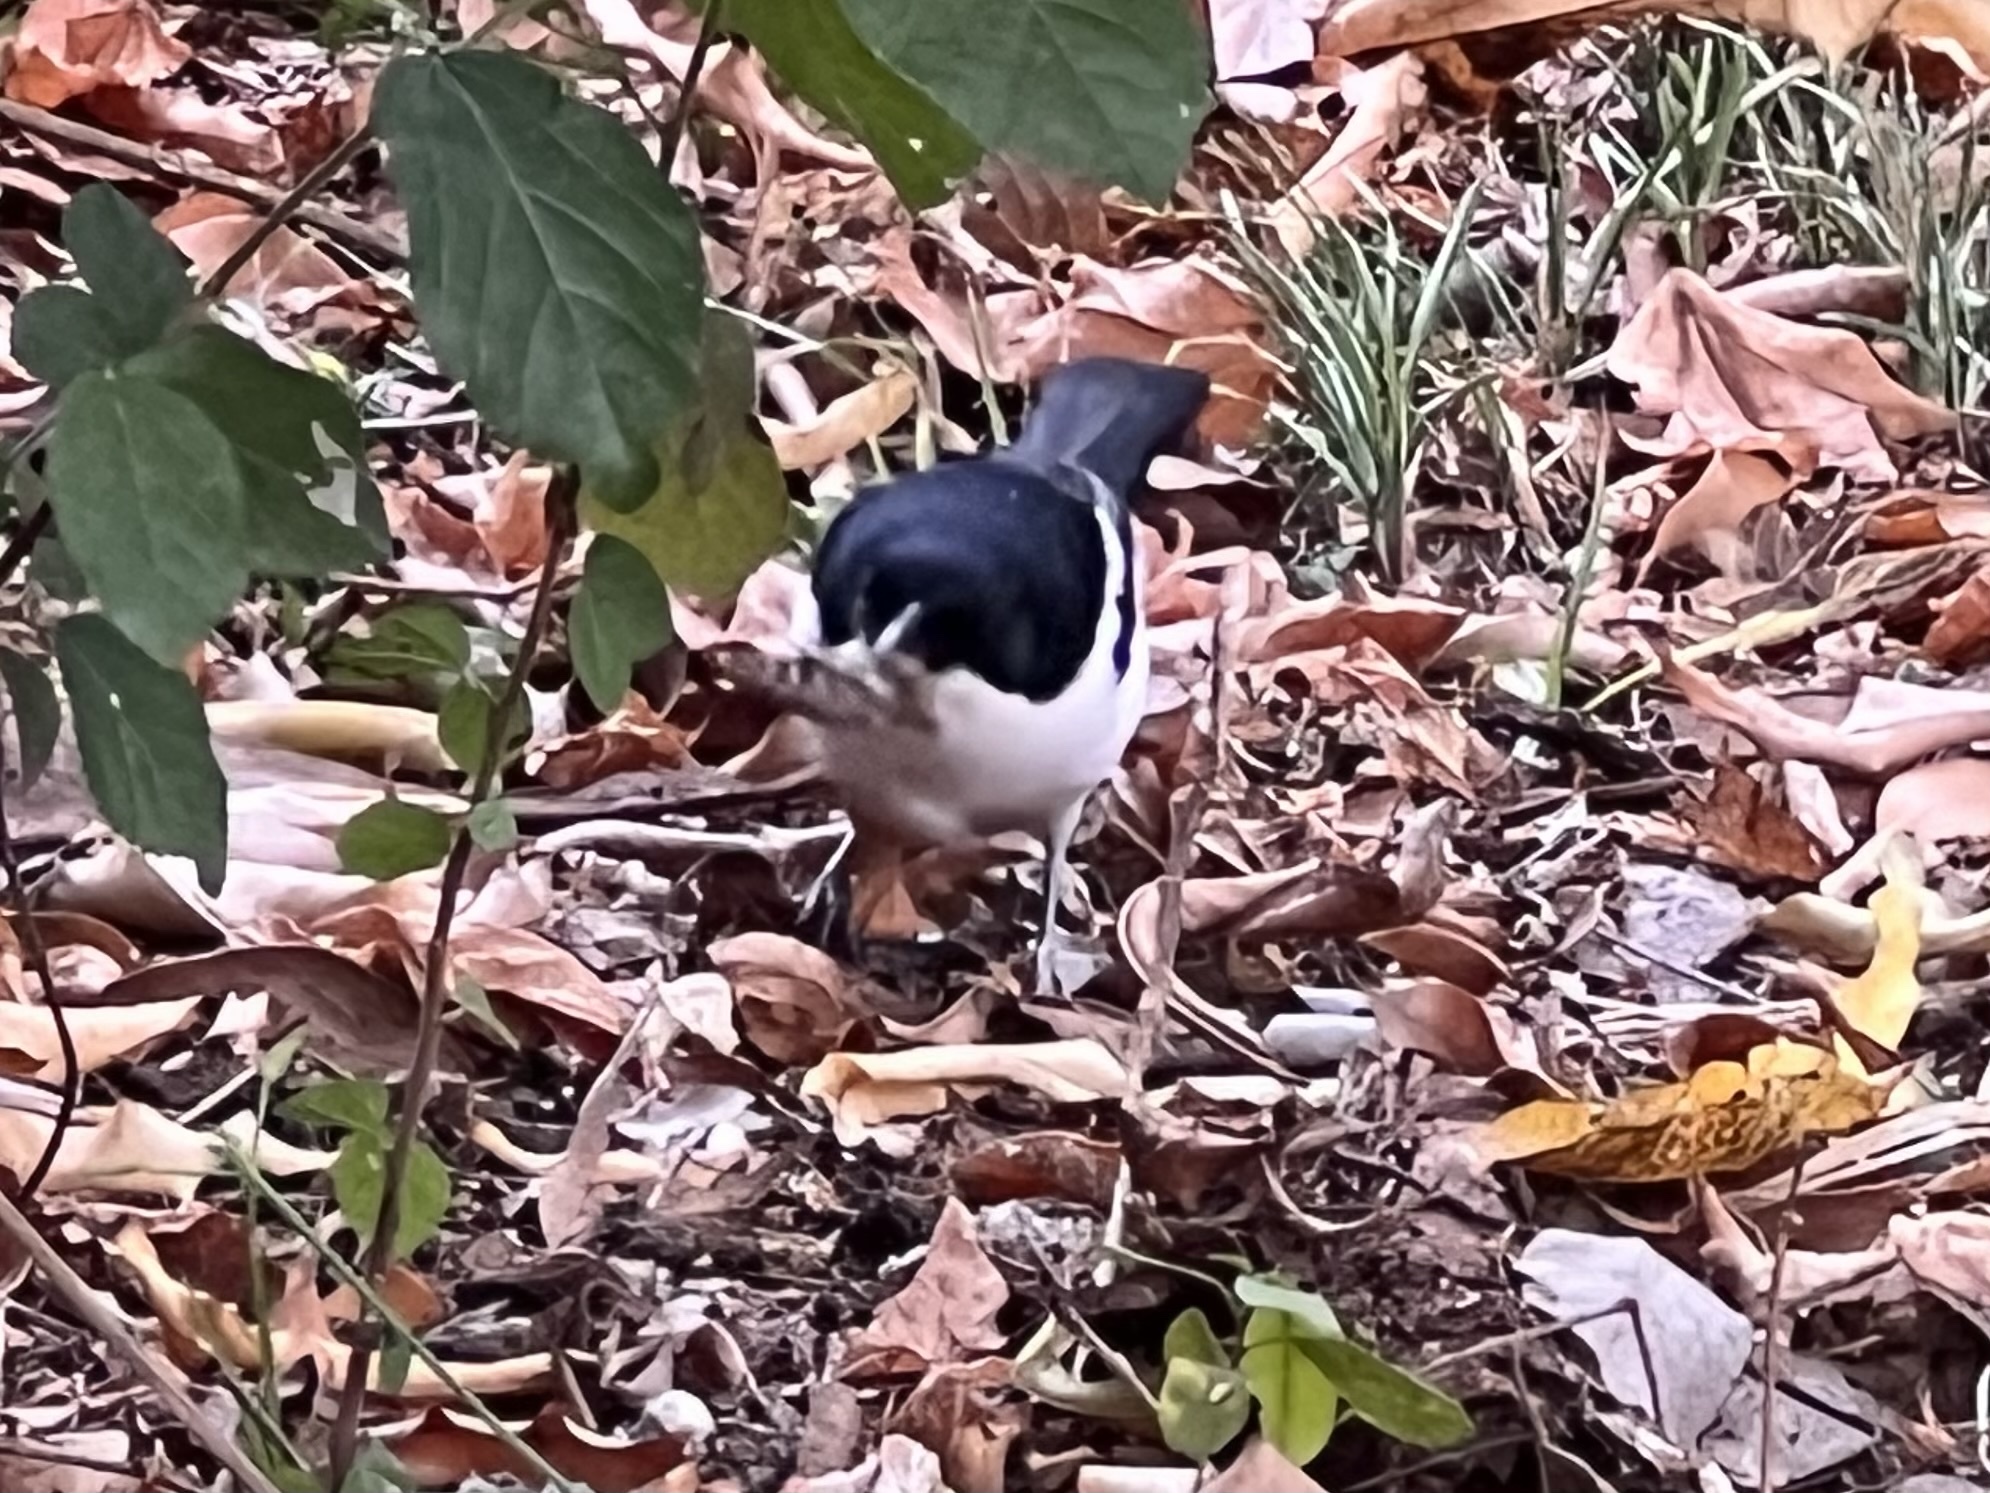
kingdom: Animalia
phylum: Chordata
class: Aves
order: Passeriformes
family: Motacillidae
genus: Motacilla
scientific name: Motacilla aguimp
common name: African pied wagtail
